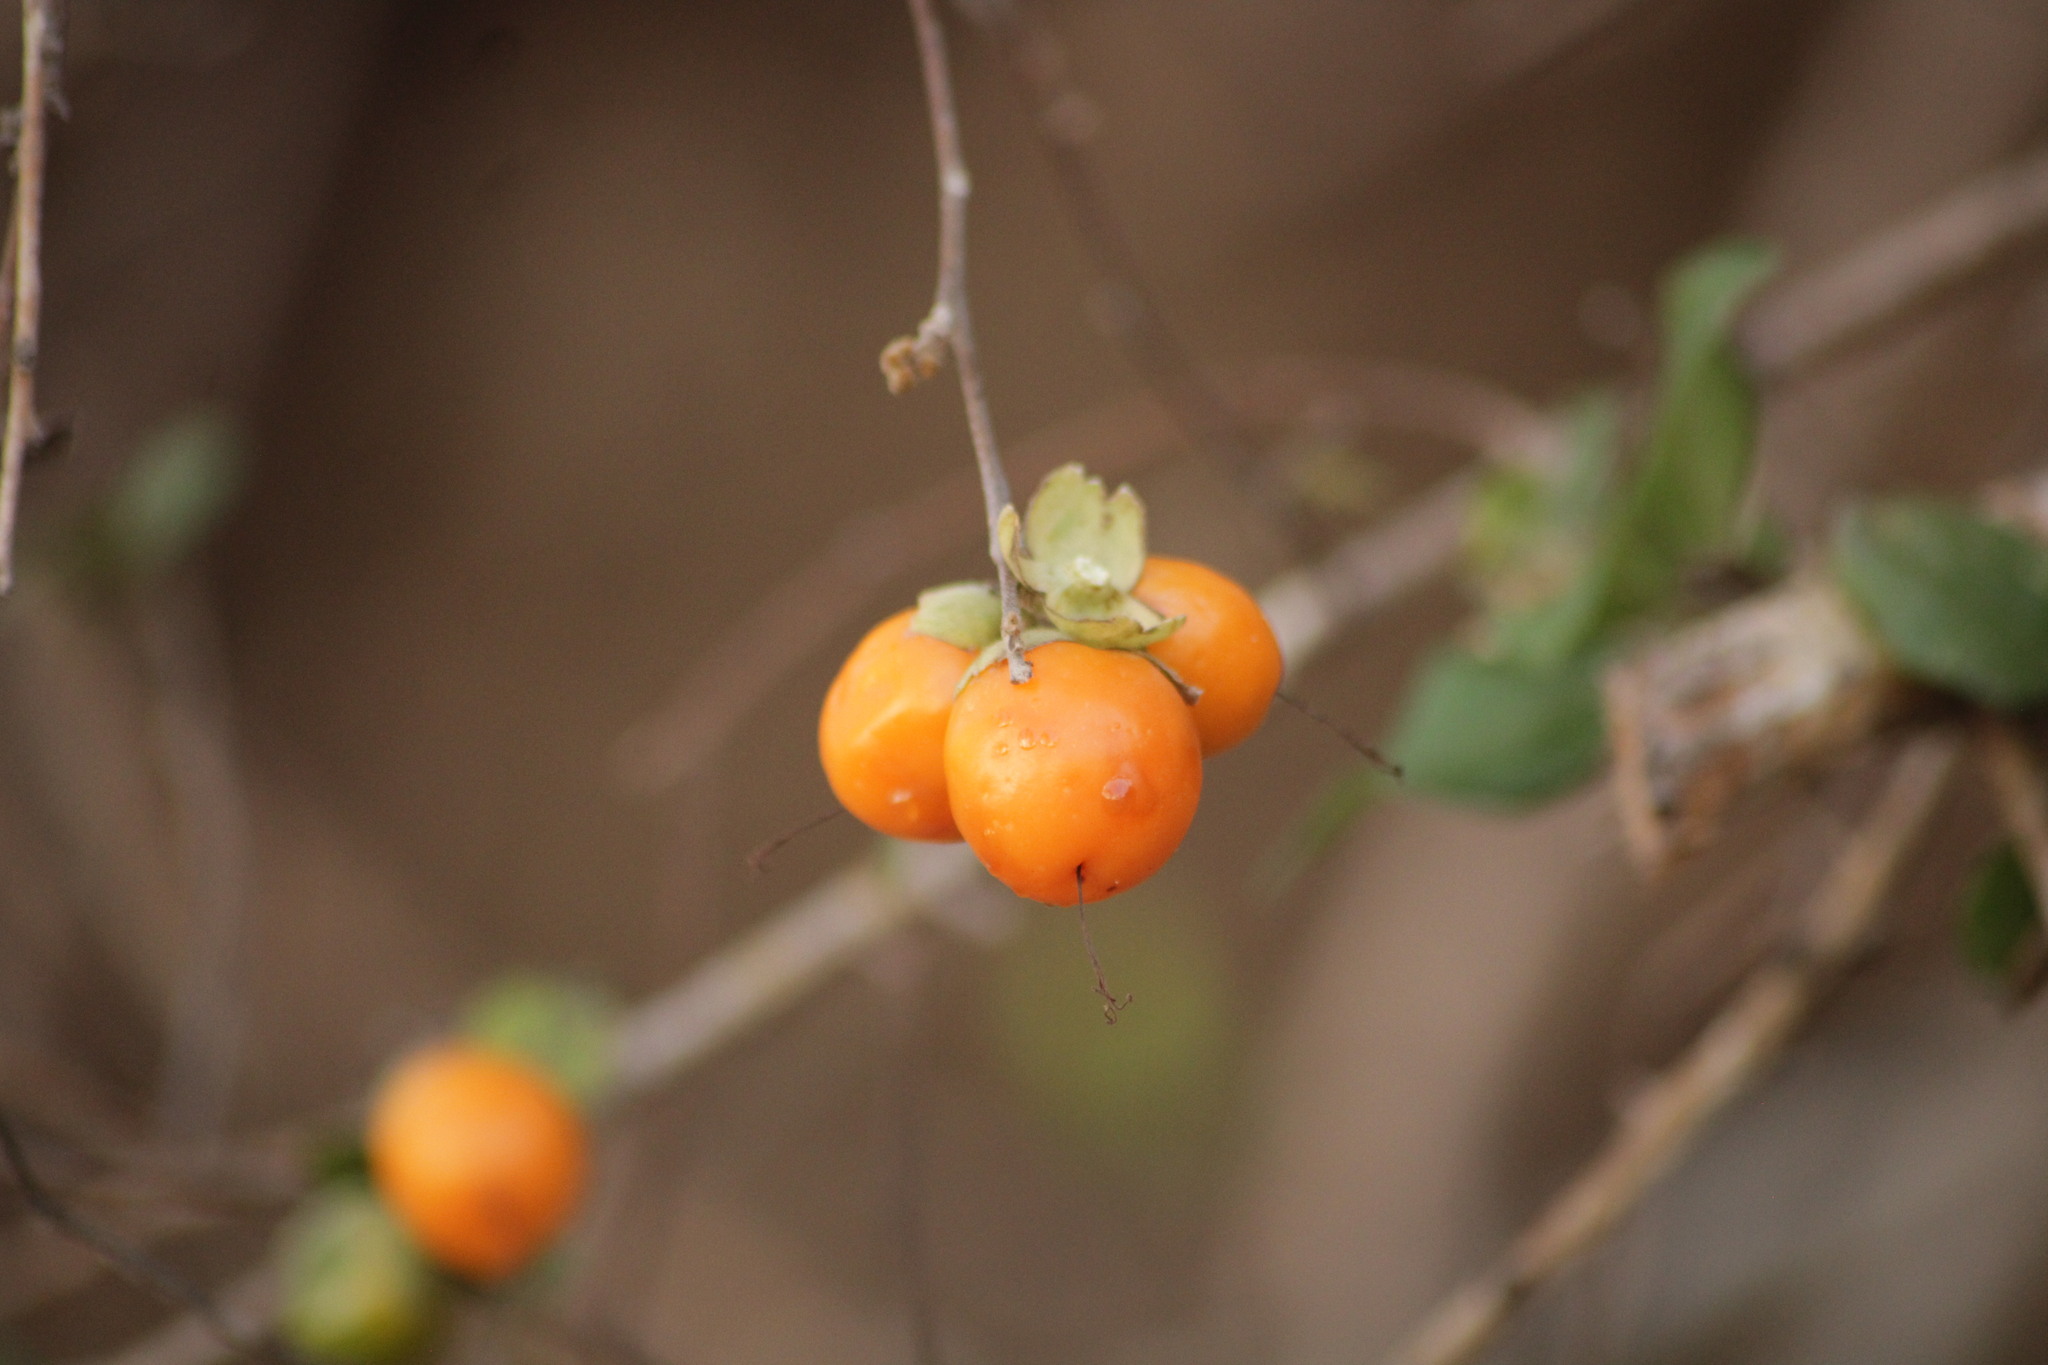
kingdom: Plantae
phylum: Tracheophyta
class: Magnoliopsida
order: Boraginales
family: Cordiaceae
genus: Cordia
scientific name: Cordia seleriana
